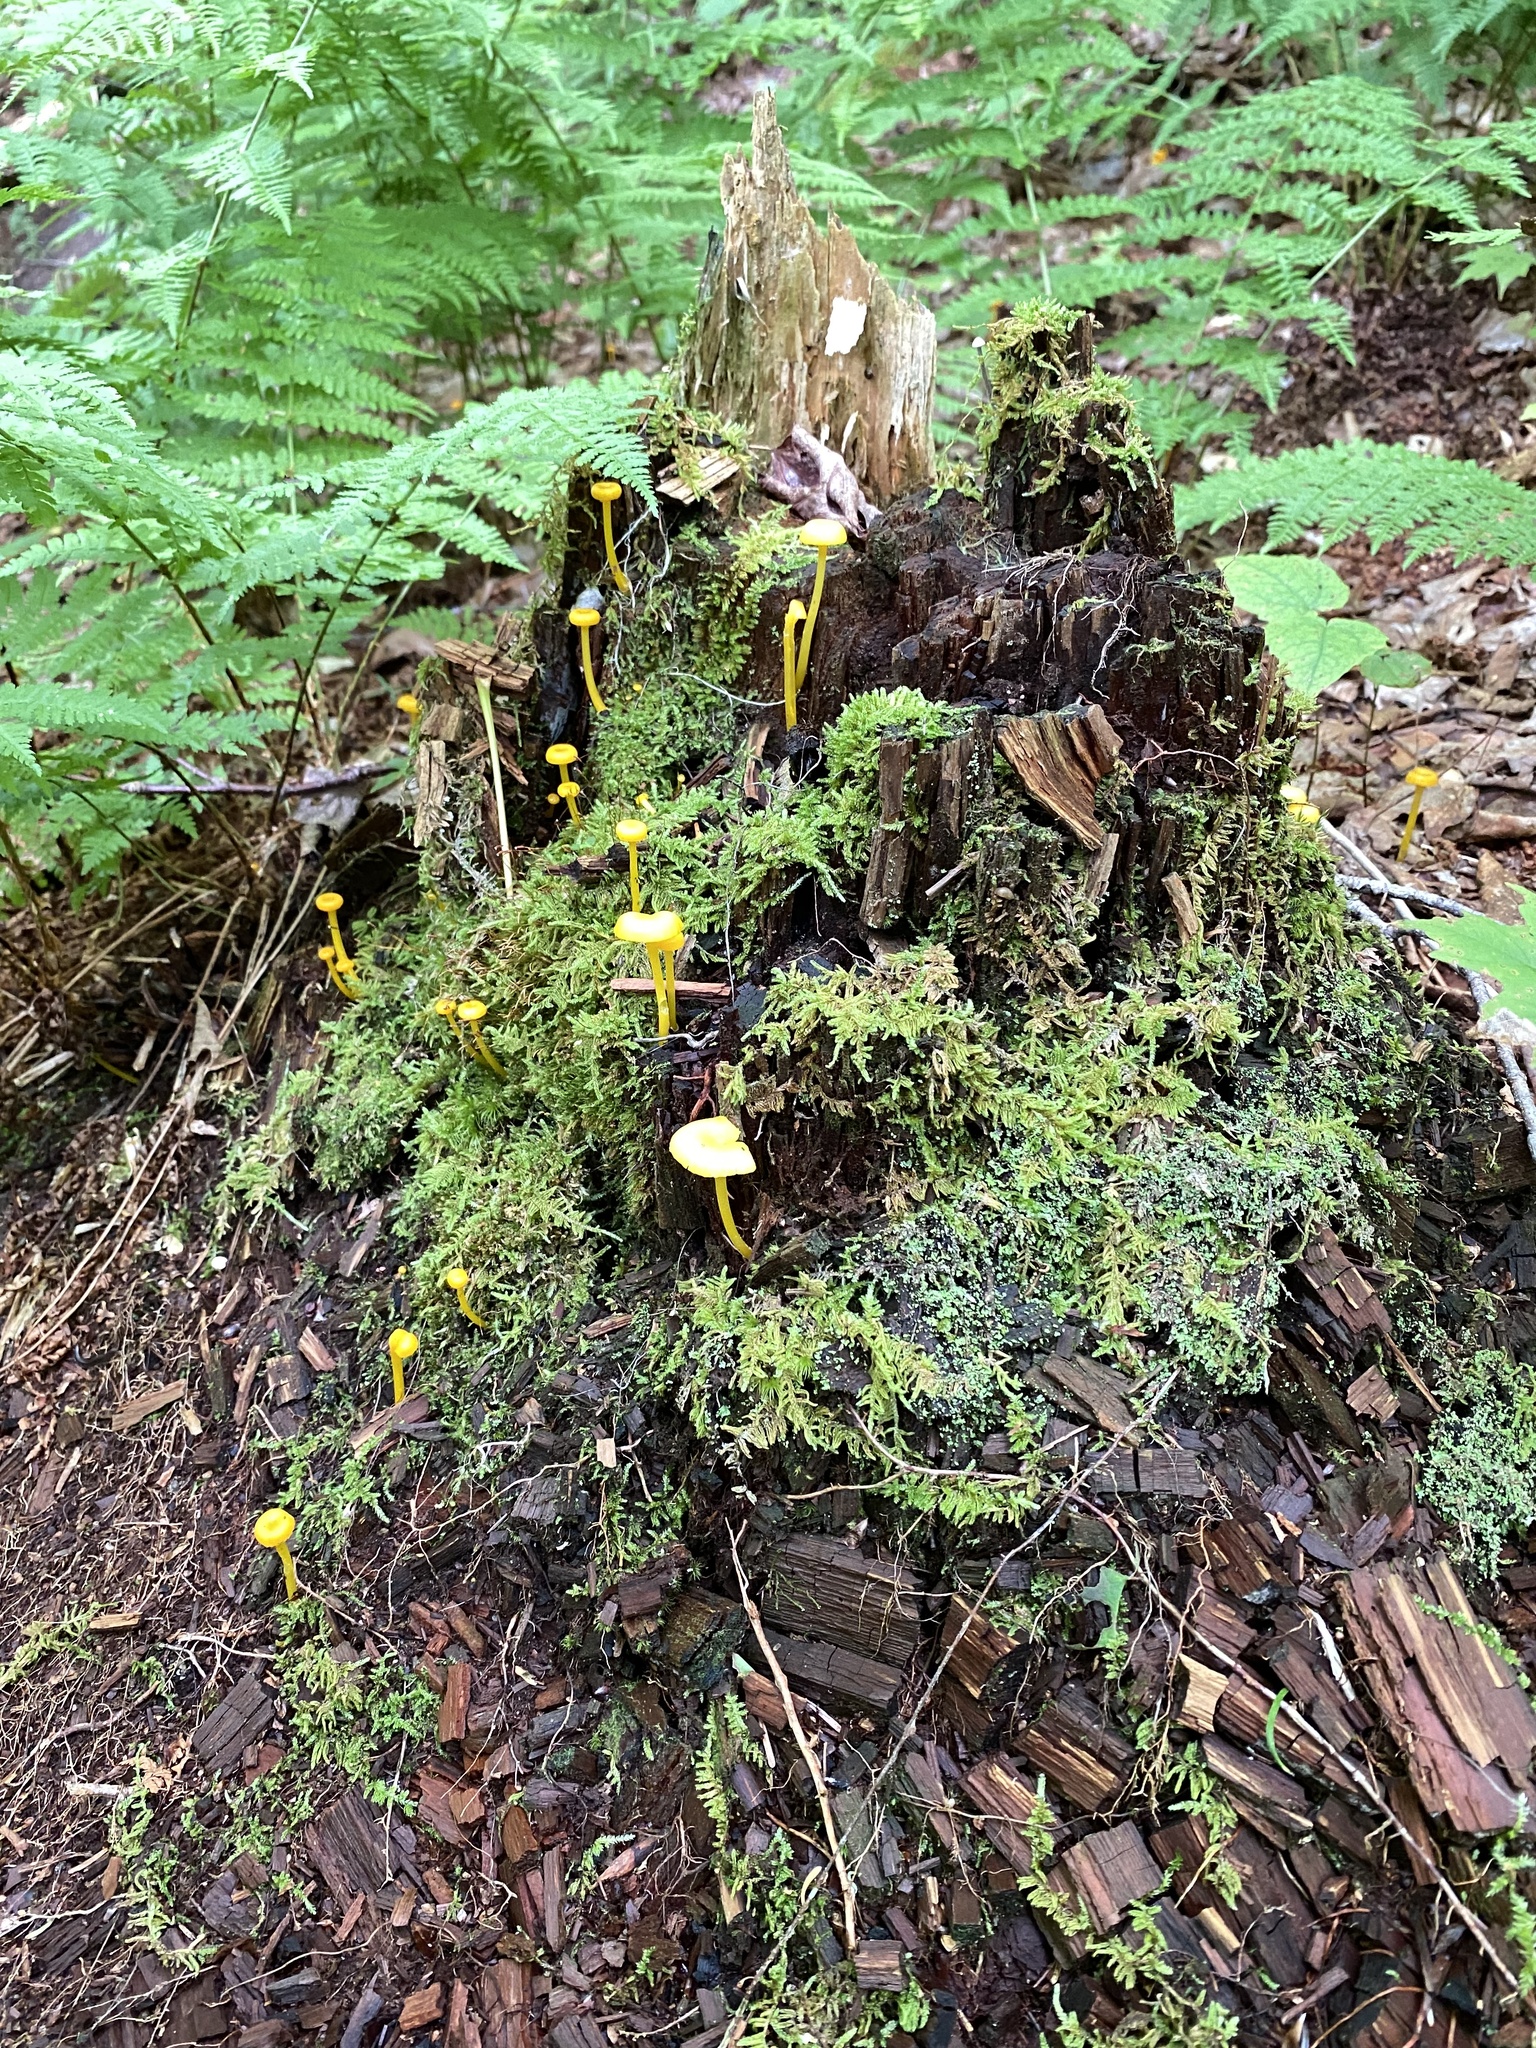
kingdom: Fungi
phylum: Basidiomycota
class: Agaricomycetes
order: Agaricales
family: Hygrophoraceae
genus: Gloioxanthomyces
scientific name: Gloioxanthomyces nitidus
